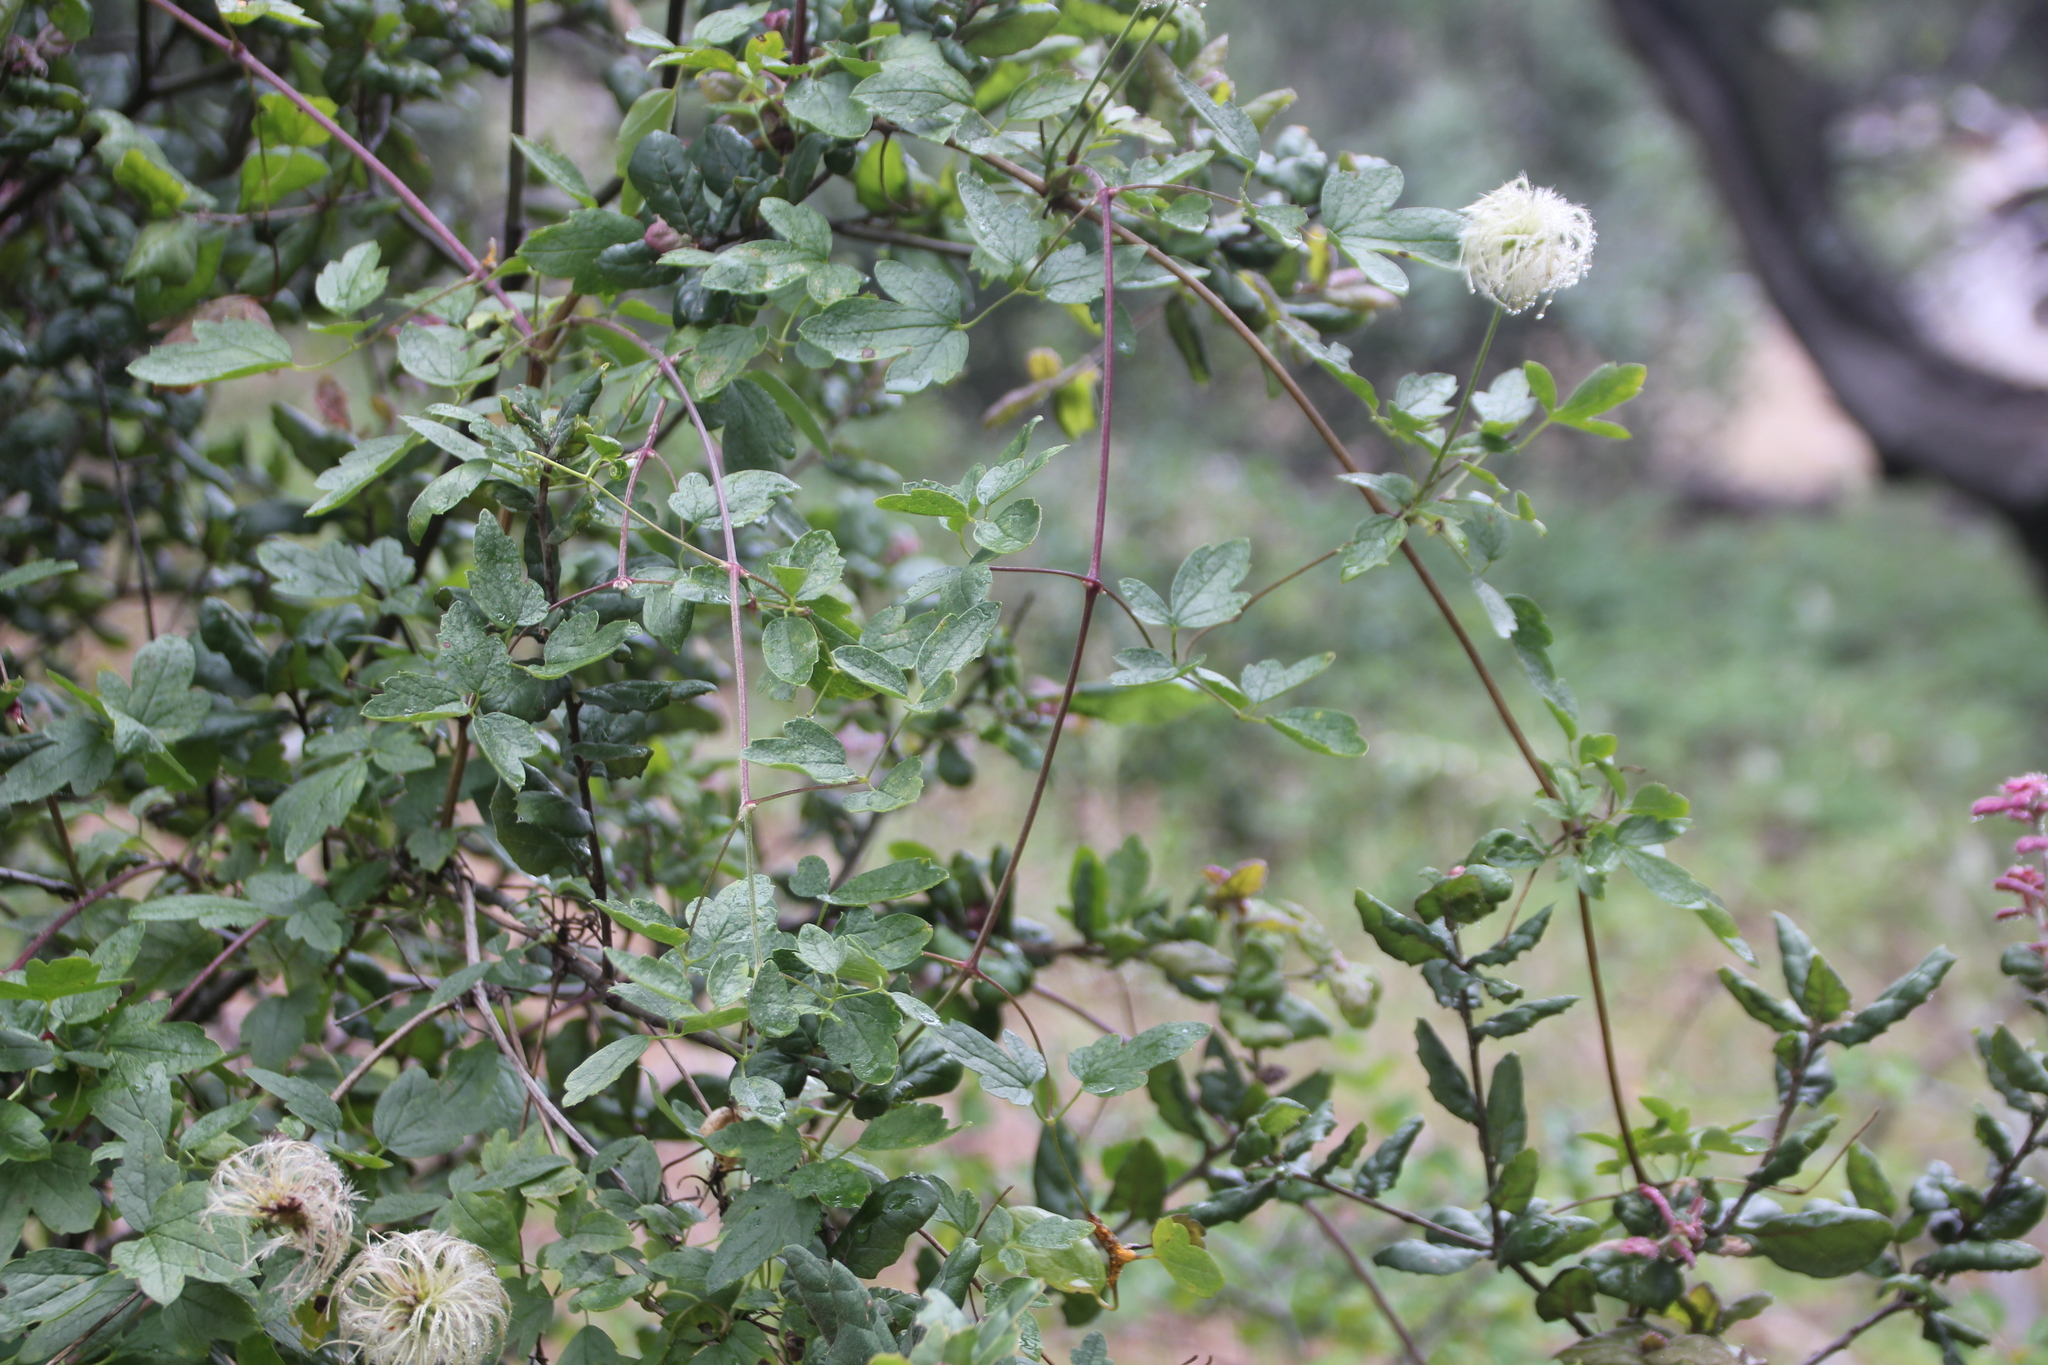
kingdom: Plantae
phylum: Tracheophyta
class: Magnoliopsida
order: Ranunculales
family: Ranunculaceae
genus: Clematis
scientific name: Clematis lasiantha
